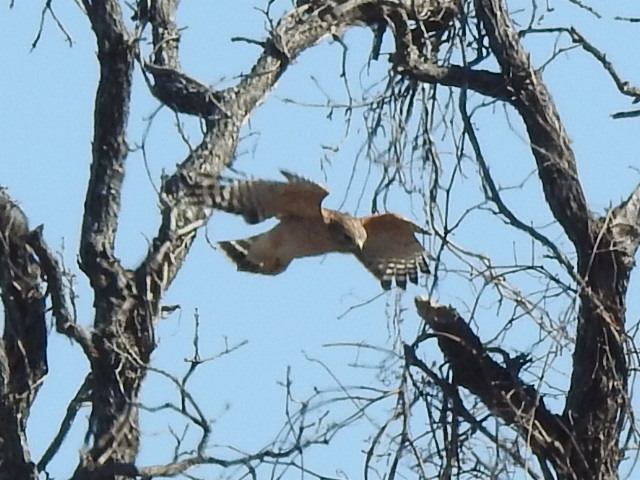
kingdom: Animalia
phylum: Chordata
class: Aves
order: Accipitriformes
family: Accipitridae
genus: Buteo
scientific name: Buteo lineatus
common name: Red-shouldered hawk
